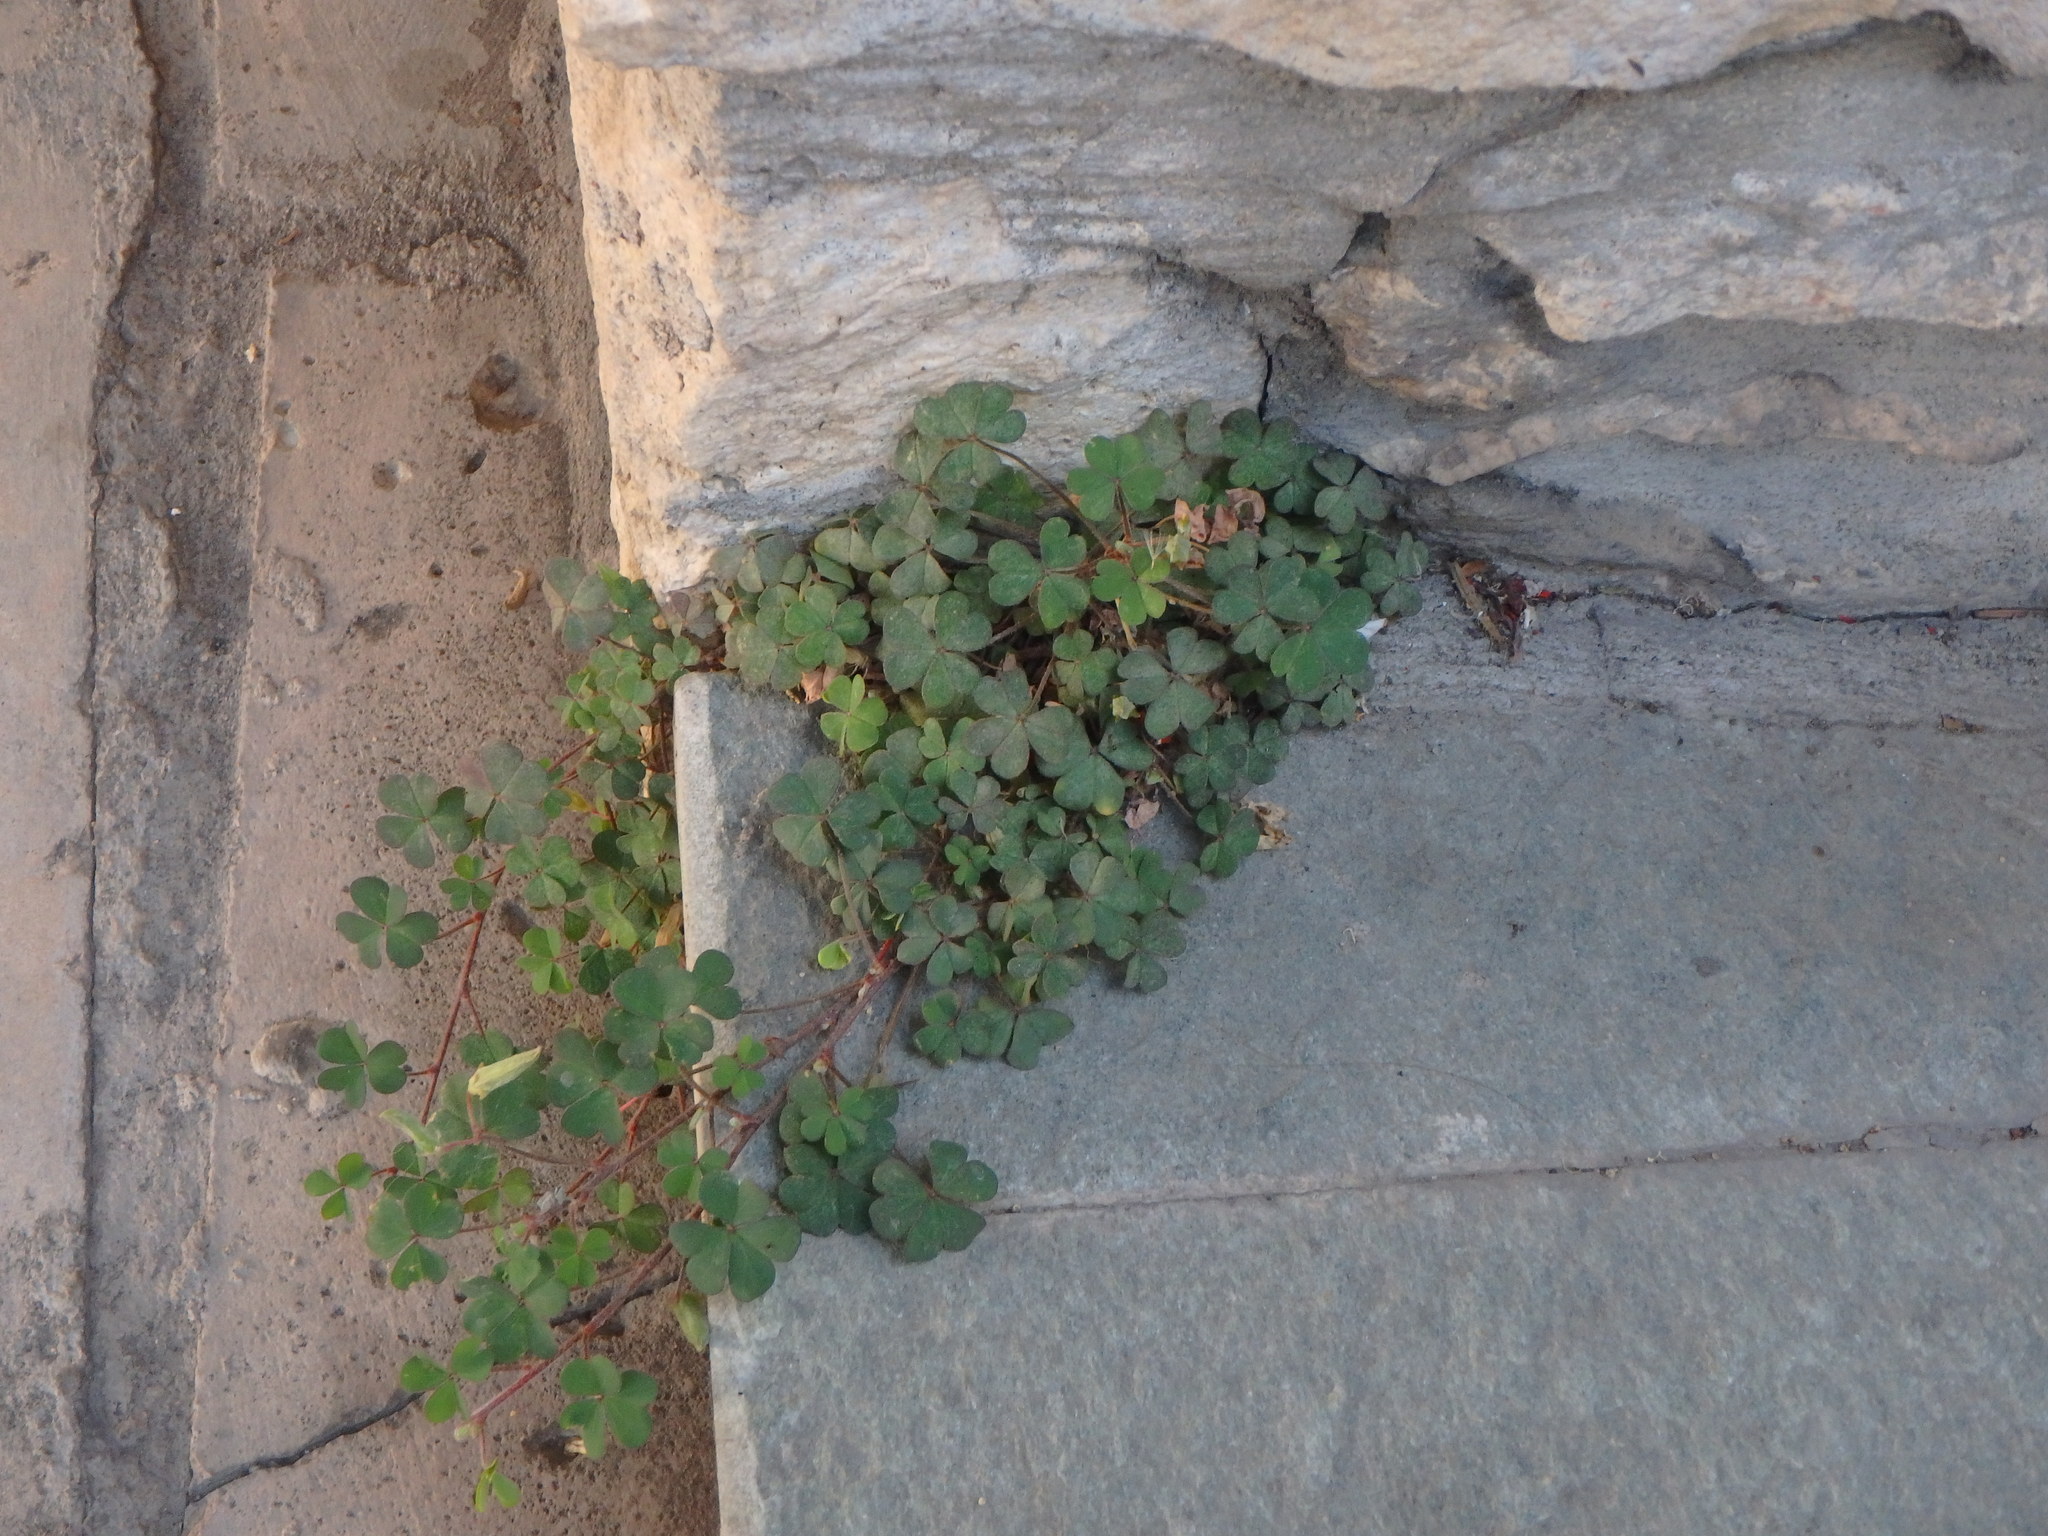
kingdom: Plantae
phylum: Tracheophyta
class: Magnoliopsida
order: Oxalidales
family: Oxalidaceae
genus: Oxalis
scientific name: Oxalis corniculata
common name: Procumbent yellow-sorrel
